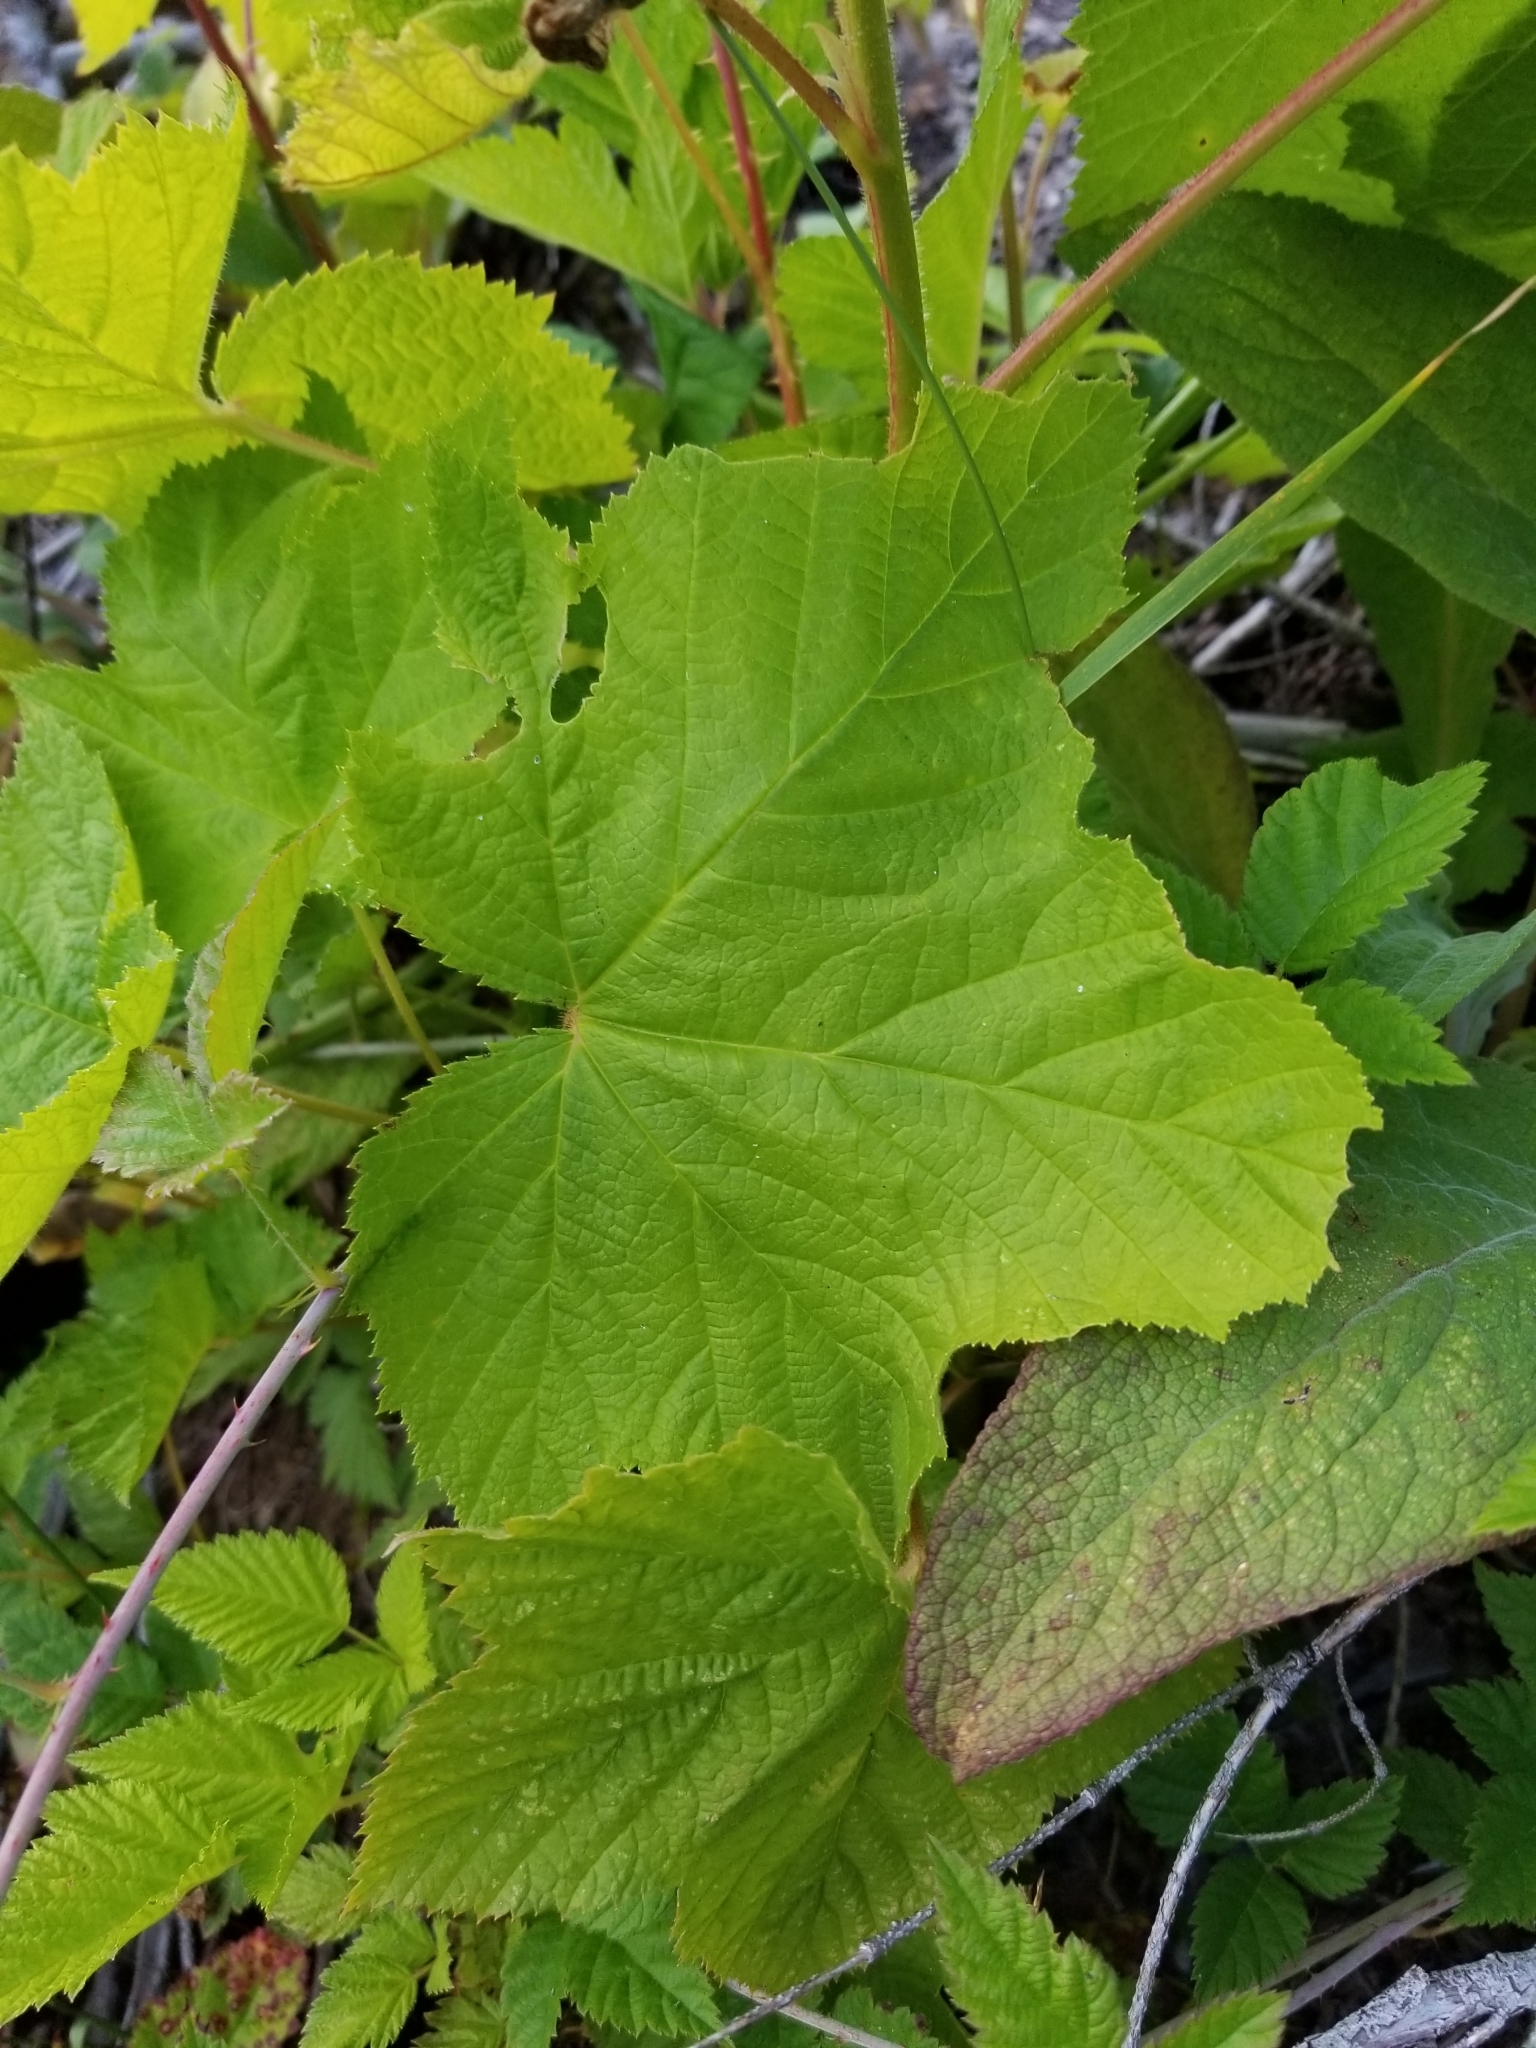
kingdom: Plantae
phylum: Tracheophyta
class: Magnoliopsida
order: Rosales
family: Rosaceae
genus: Rubus
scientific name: Rubus parviflorus
